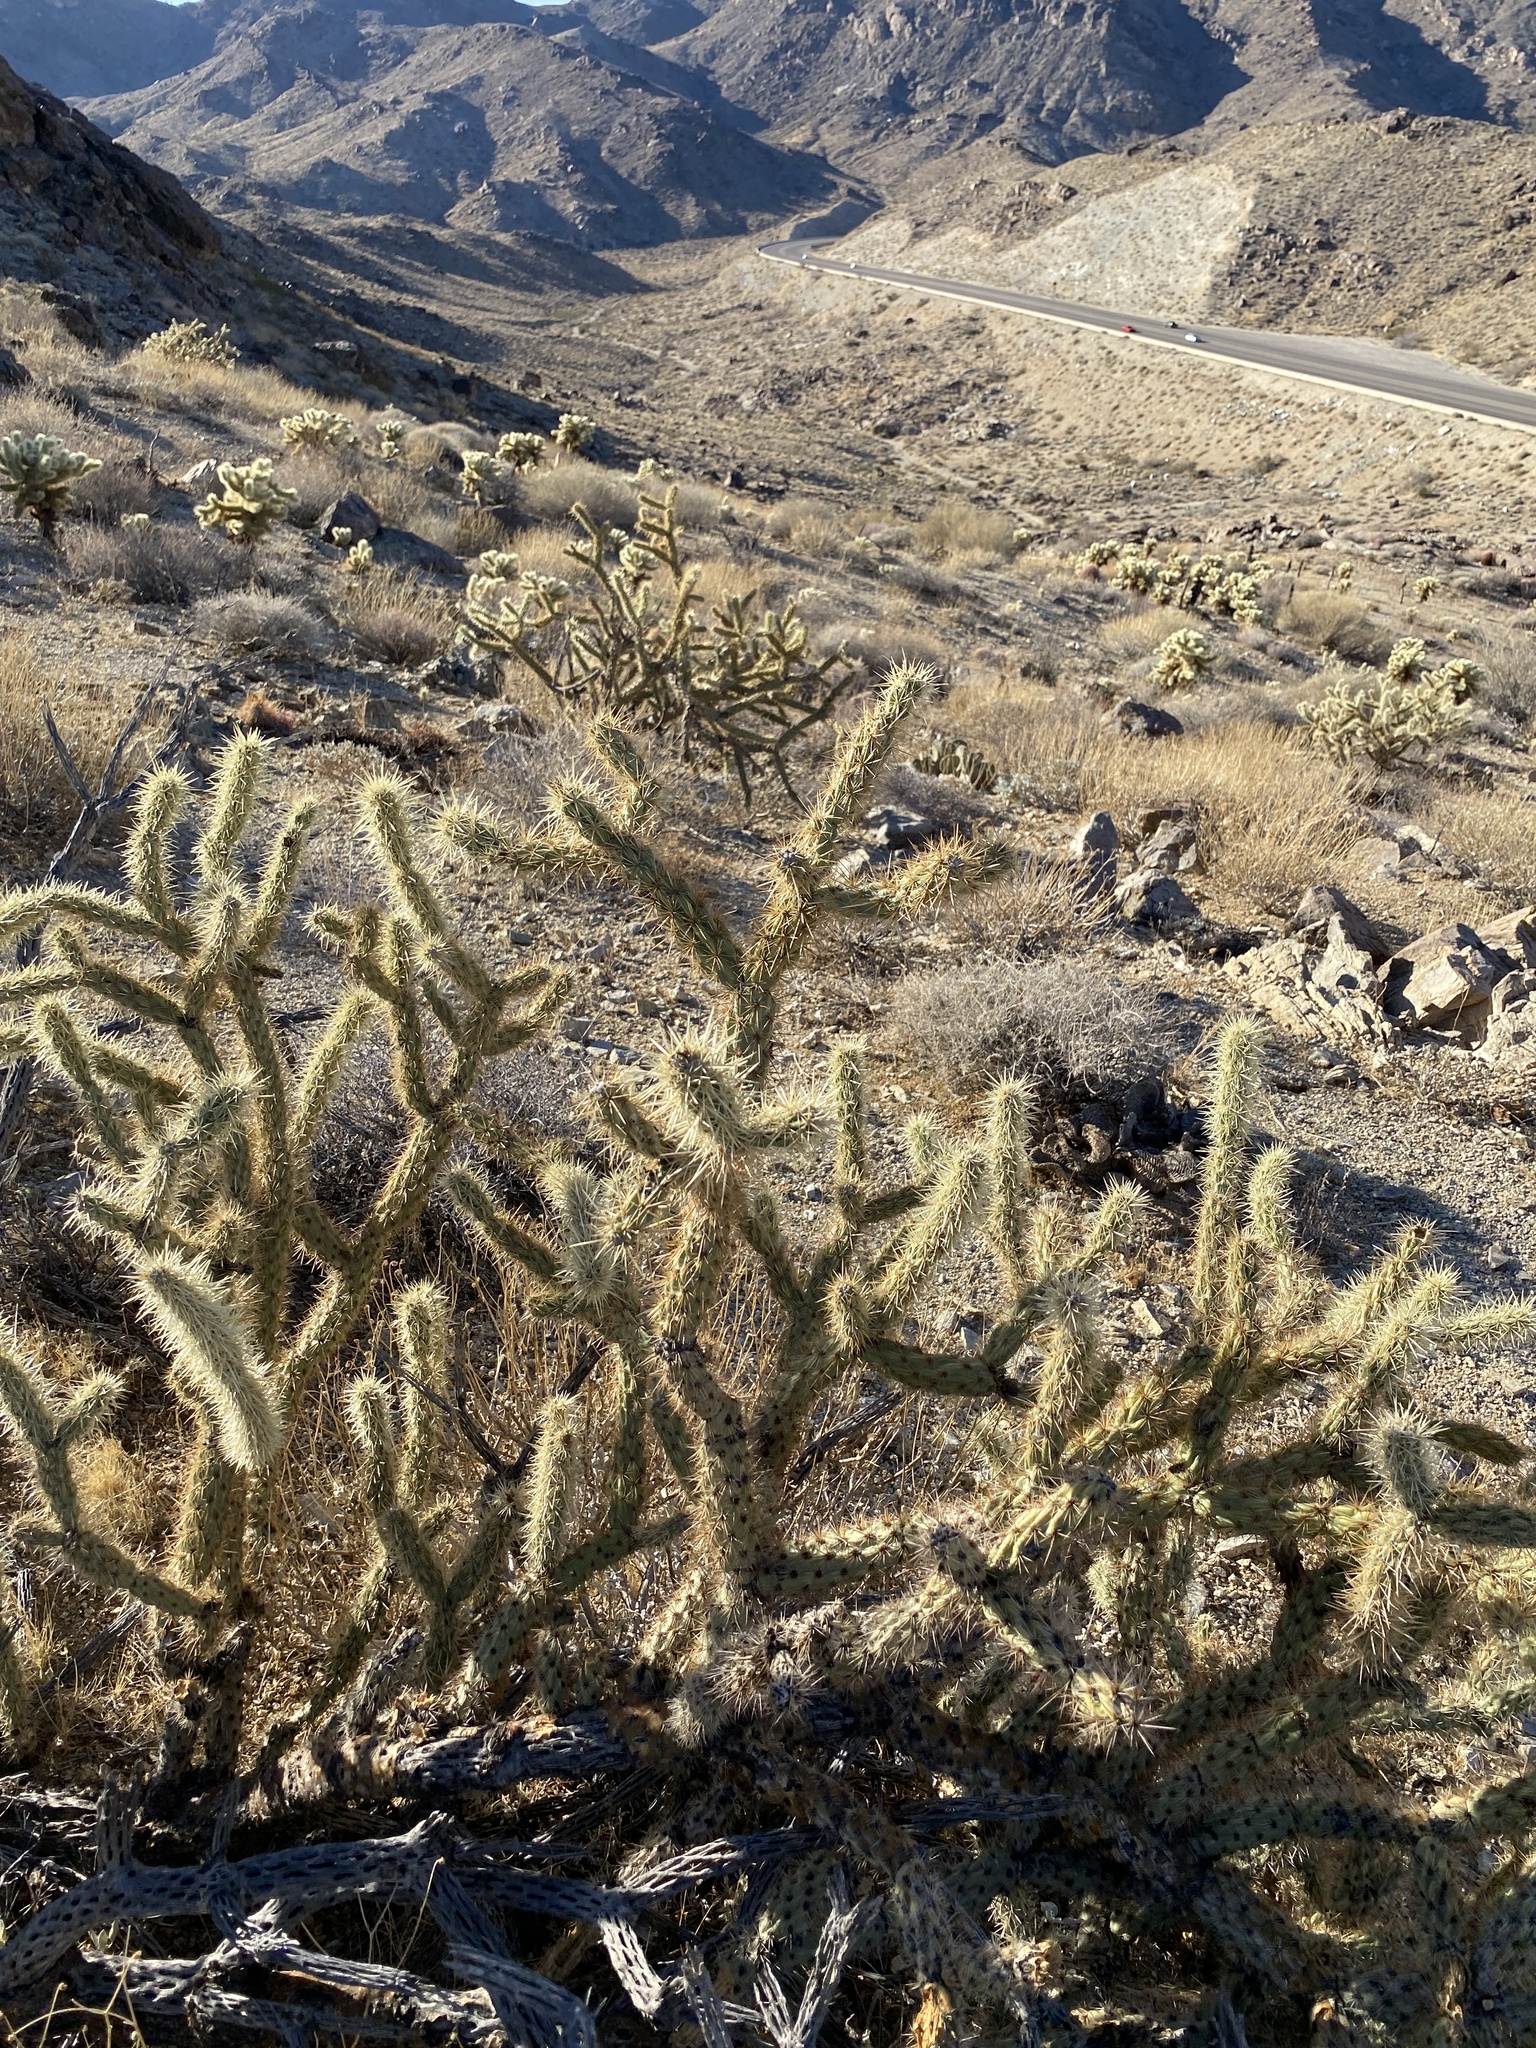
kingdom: Plantae
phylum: Tracheophyta
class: Magnoliopsida
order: Caryophyllales
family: Cactaceae
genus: Cylindropuntia
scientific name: Cylindropuntia acanthocarpa
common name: Buckhorn cholla
